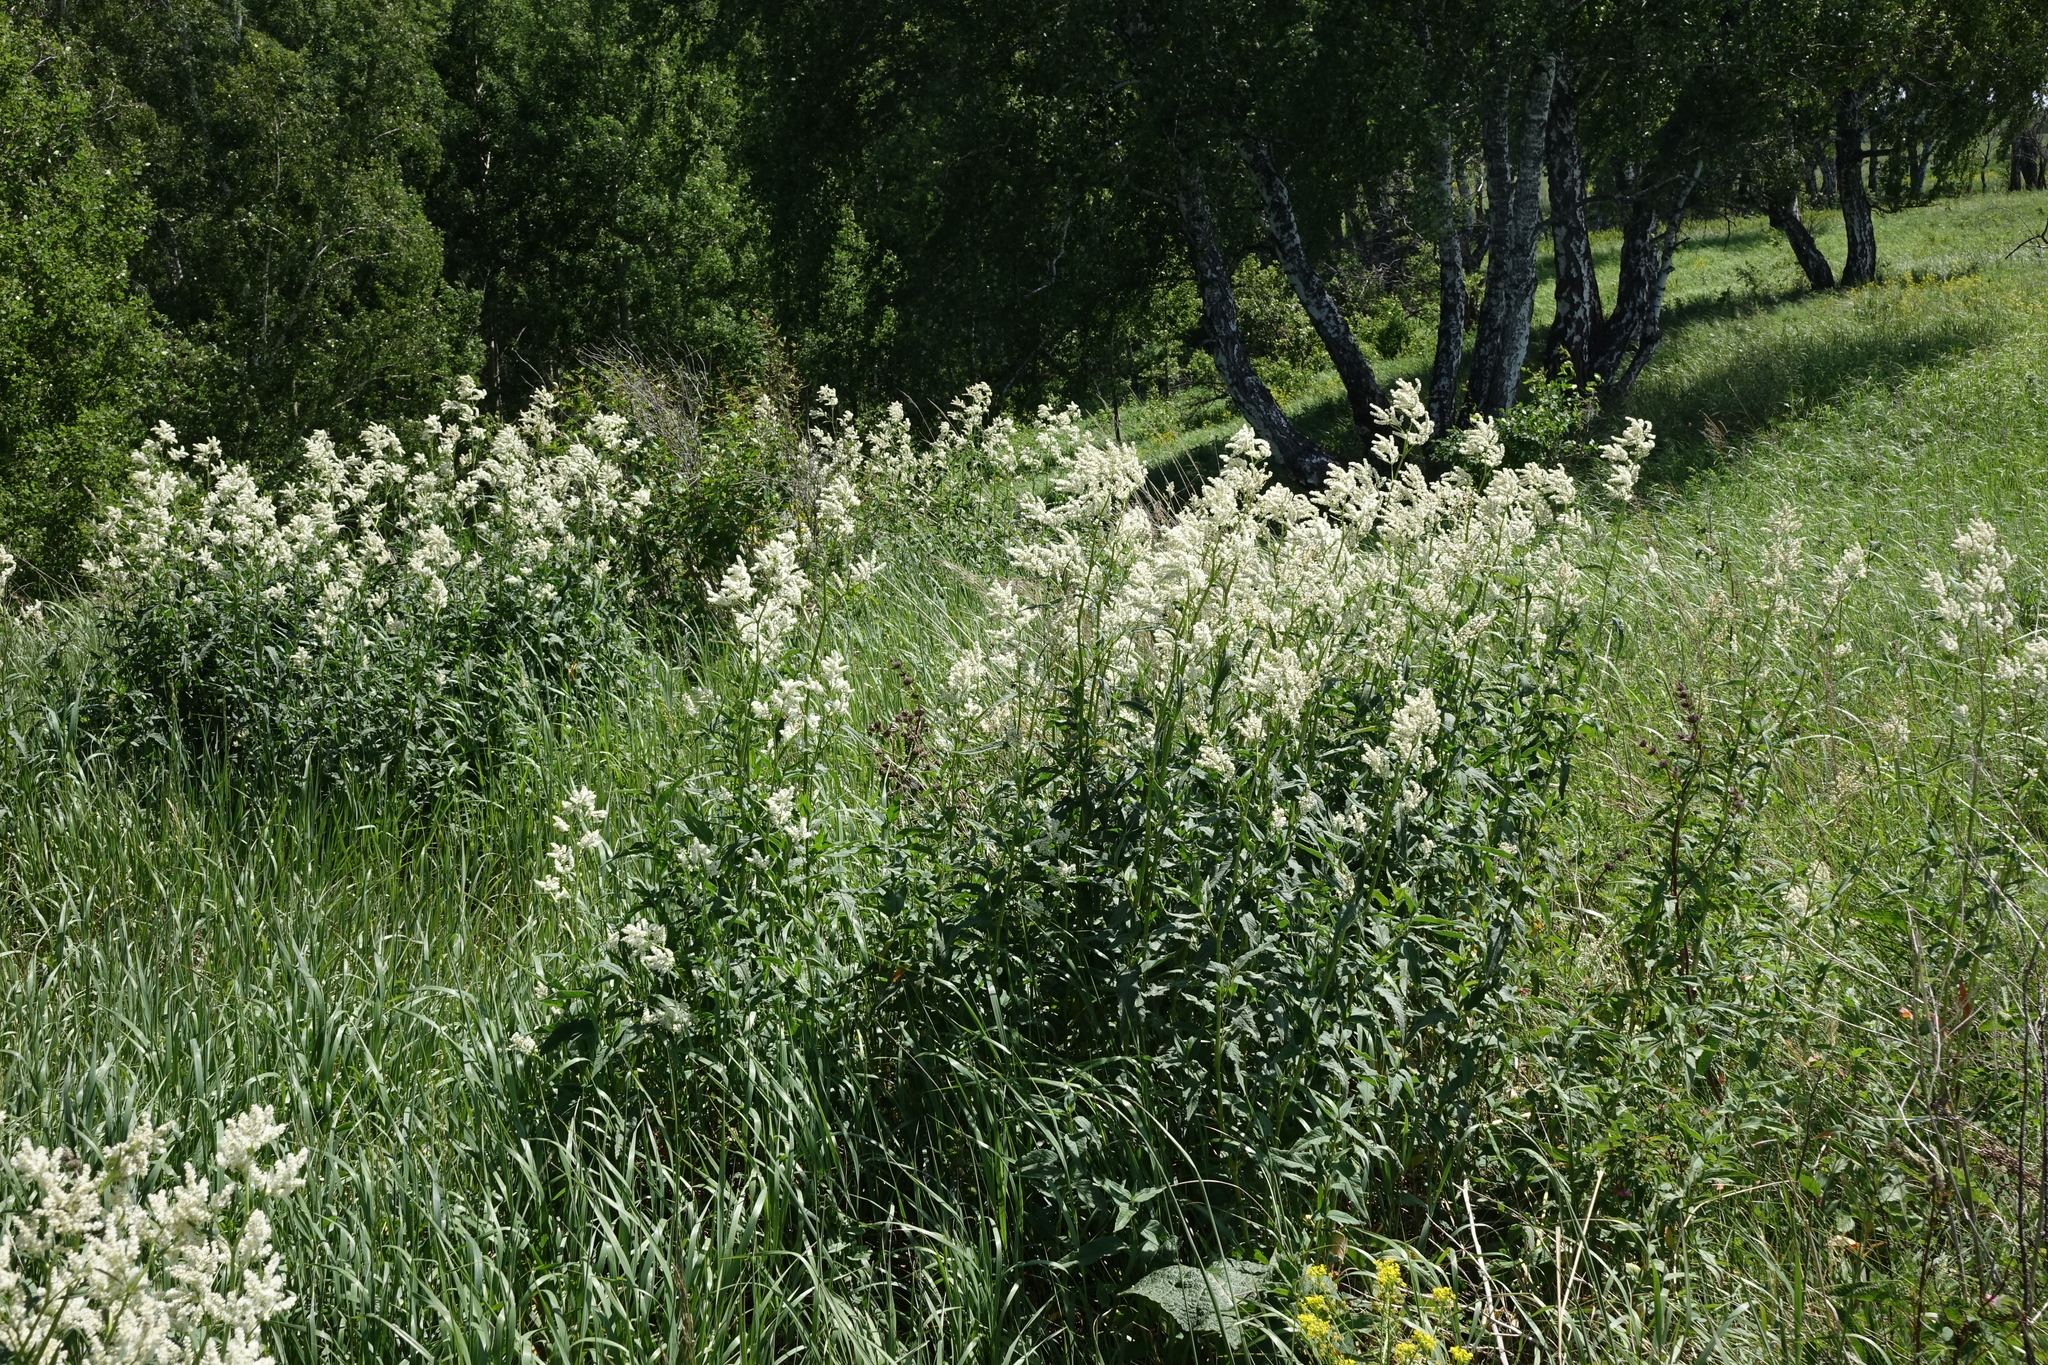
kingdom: Plantae
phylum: Tracheophyta
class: Magnoliopsida
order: Caryophyllales
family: Polygonaceae
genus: Koenigia
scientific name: Koenigia alpina
